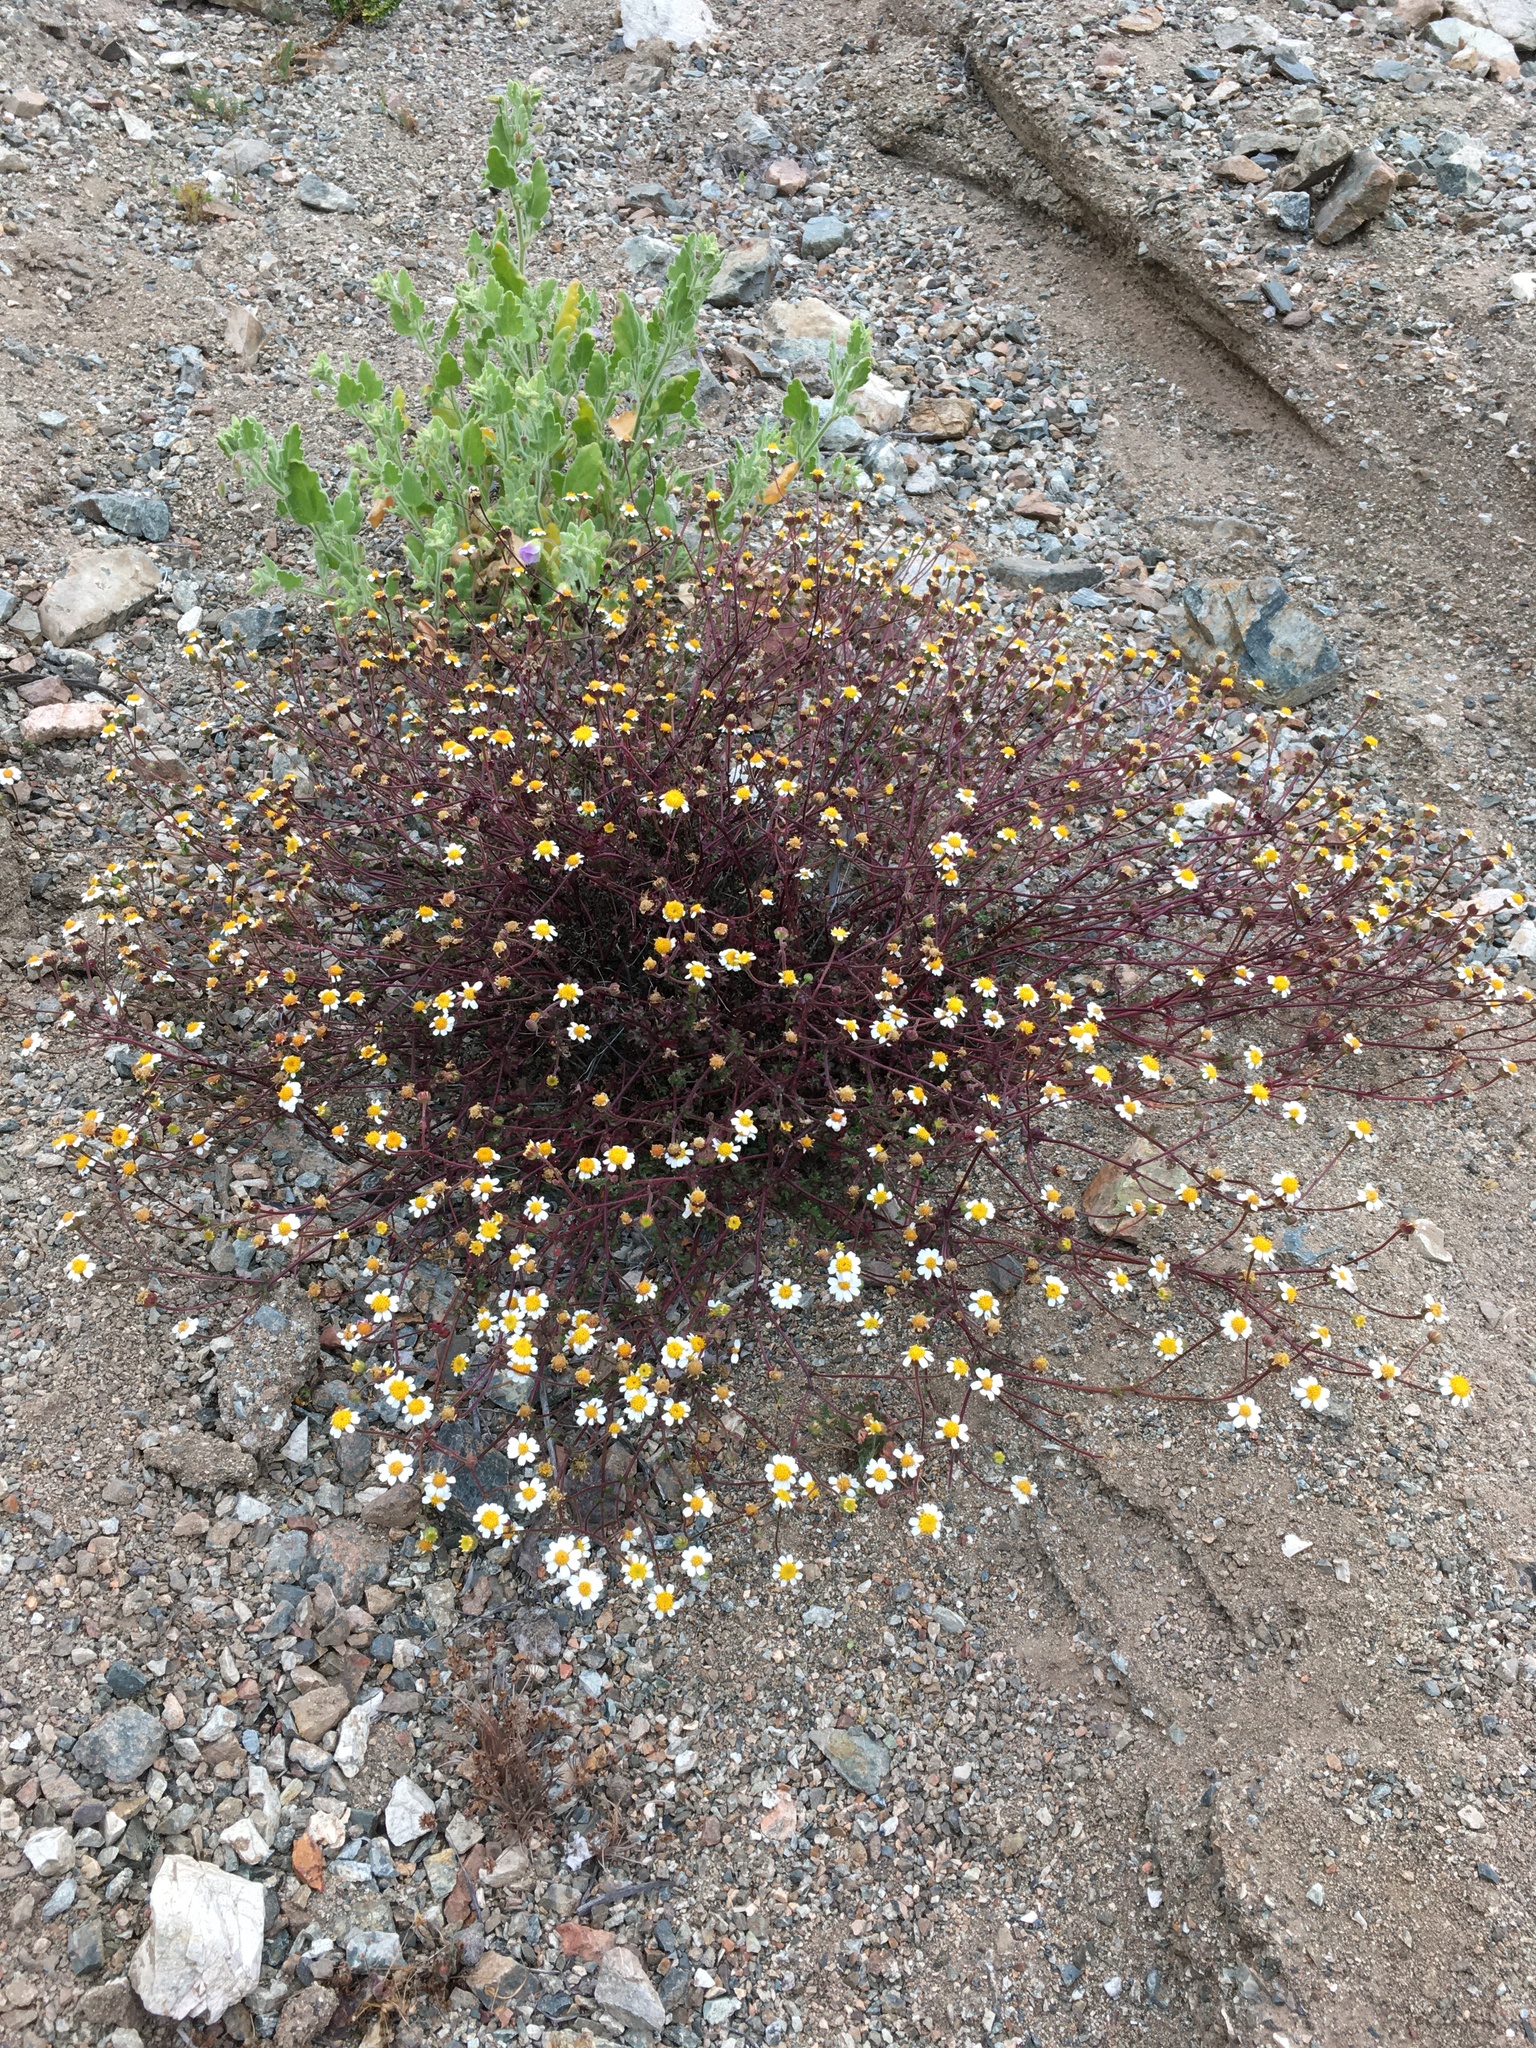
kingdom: Plantae
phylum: Tracheophyta
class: Magnoliopsida
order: Asterales
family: Asteraceae
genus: Laphamia
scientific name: Laphamia emoryi
